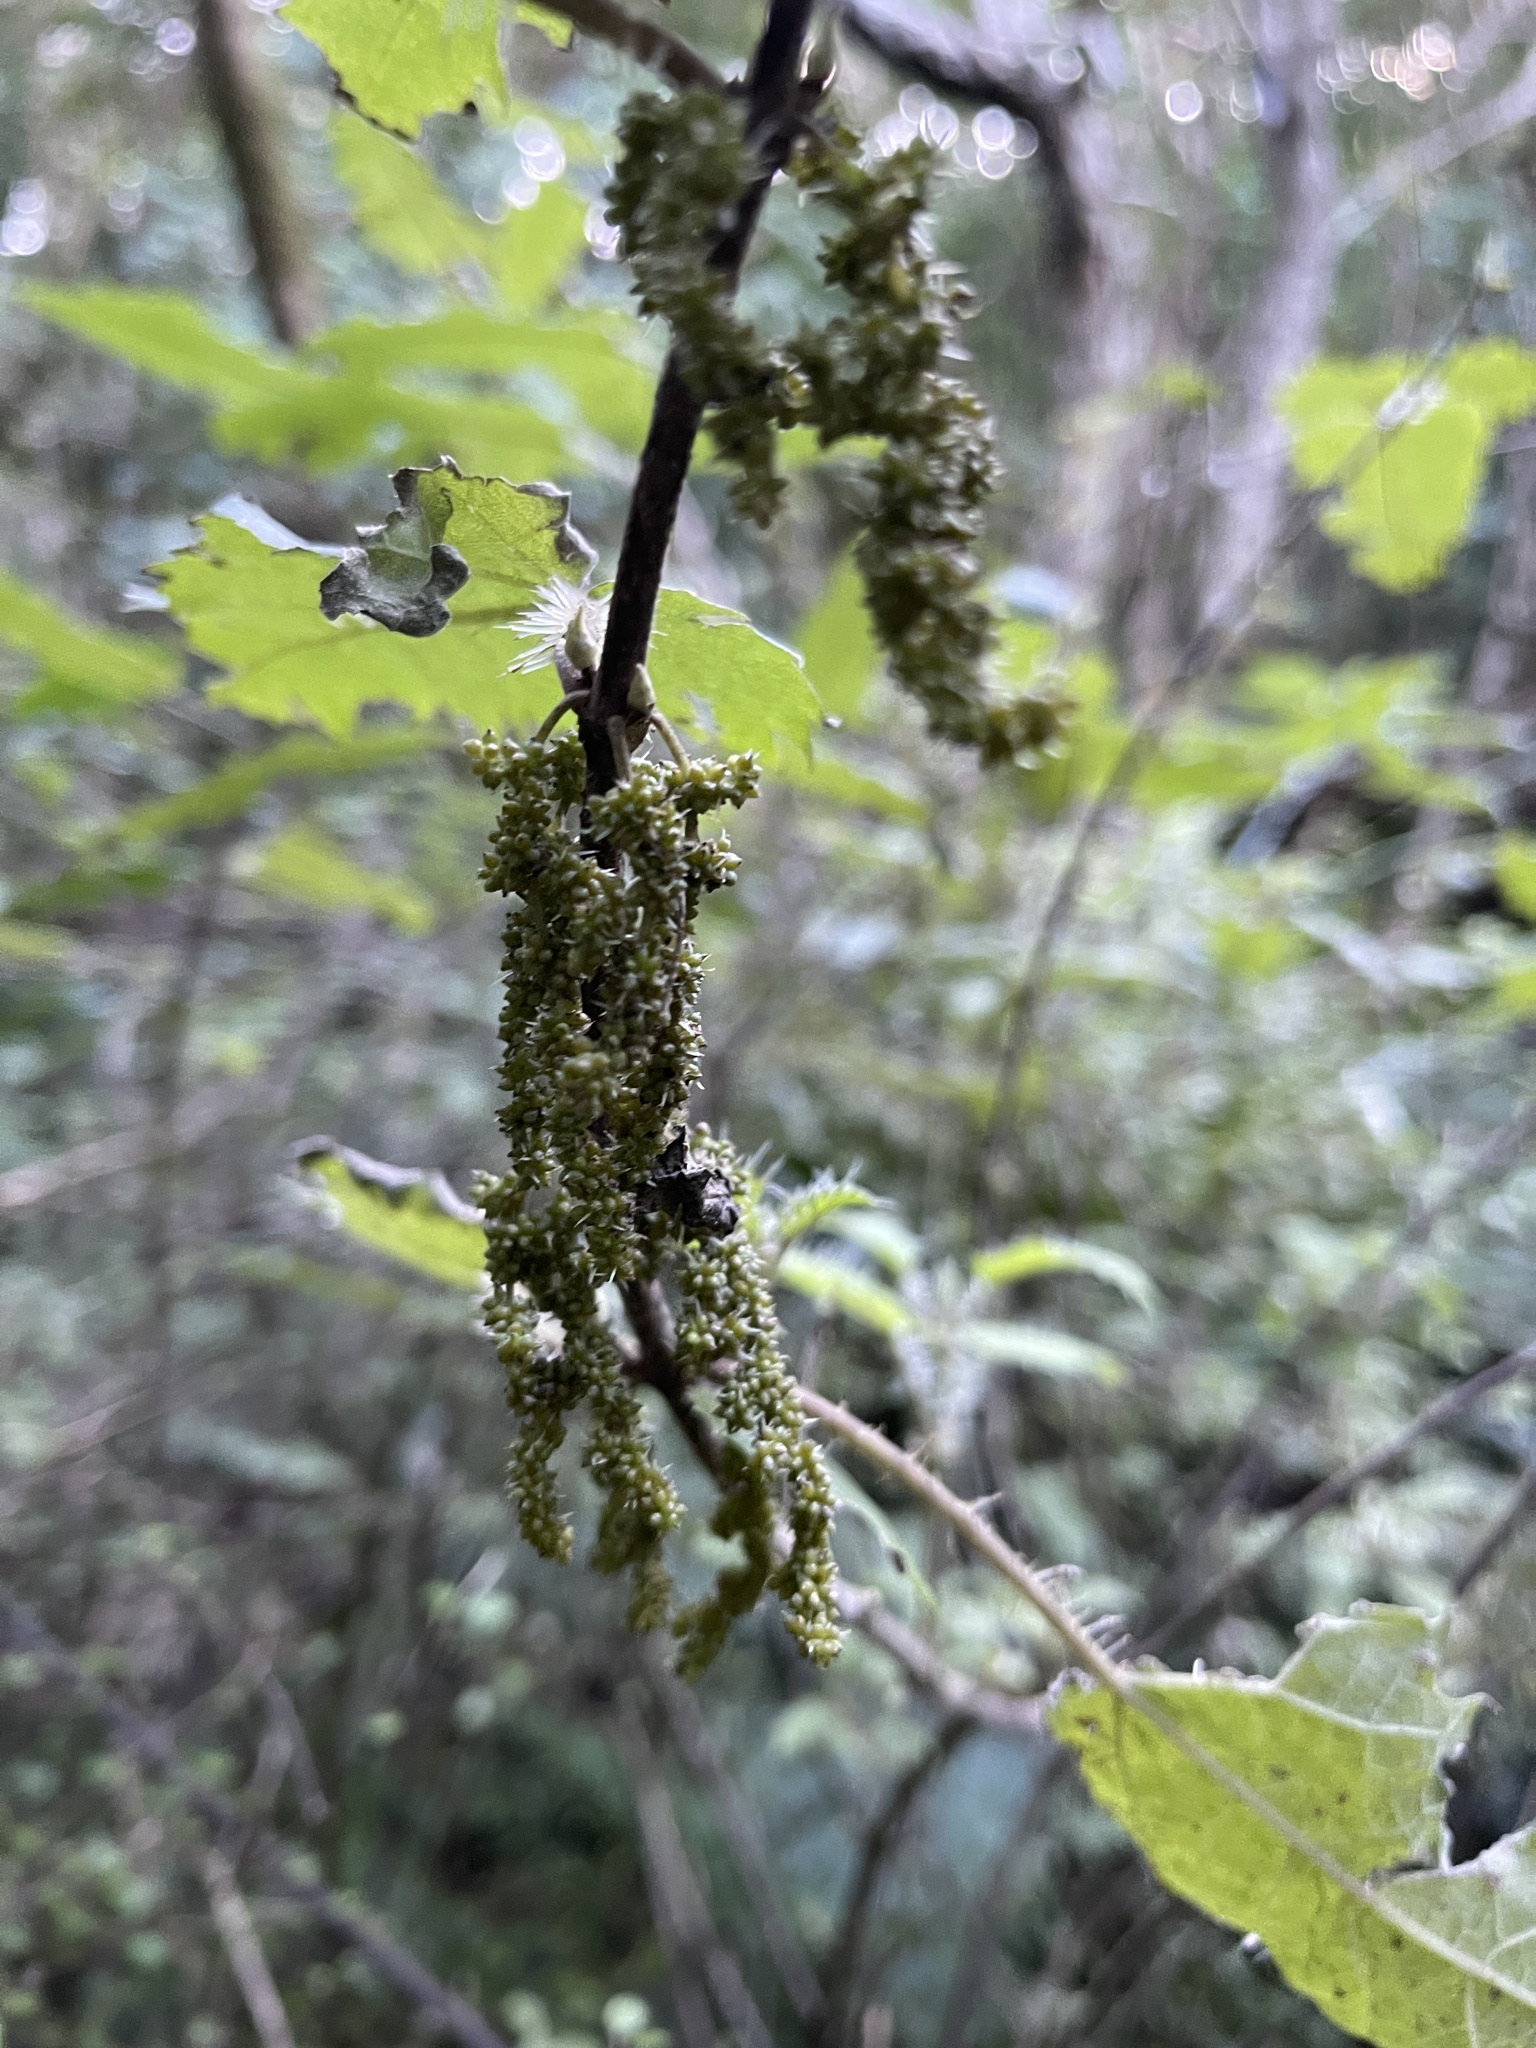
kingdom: Plantae
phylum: Tracheophyta
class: Magnoliopsida
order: Rosales
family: Urticaceae
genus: Urtica
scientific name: Urtica ferox
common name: Tree nettle
